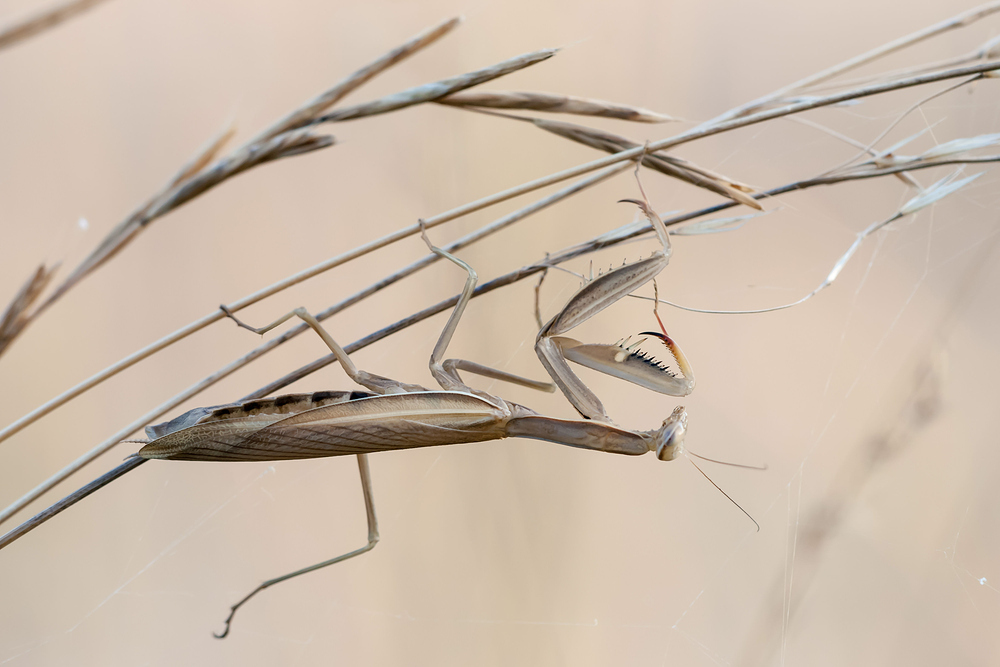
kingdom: Animalia
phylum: Arthropoda
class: Insecta
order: Mantodea
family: Mantidae
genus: Mantis
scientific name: Mantis religiosa
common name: Praying mantis
